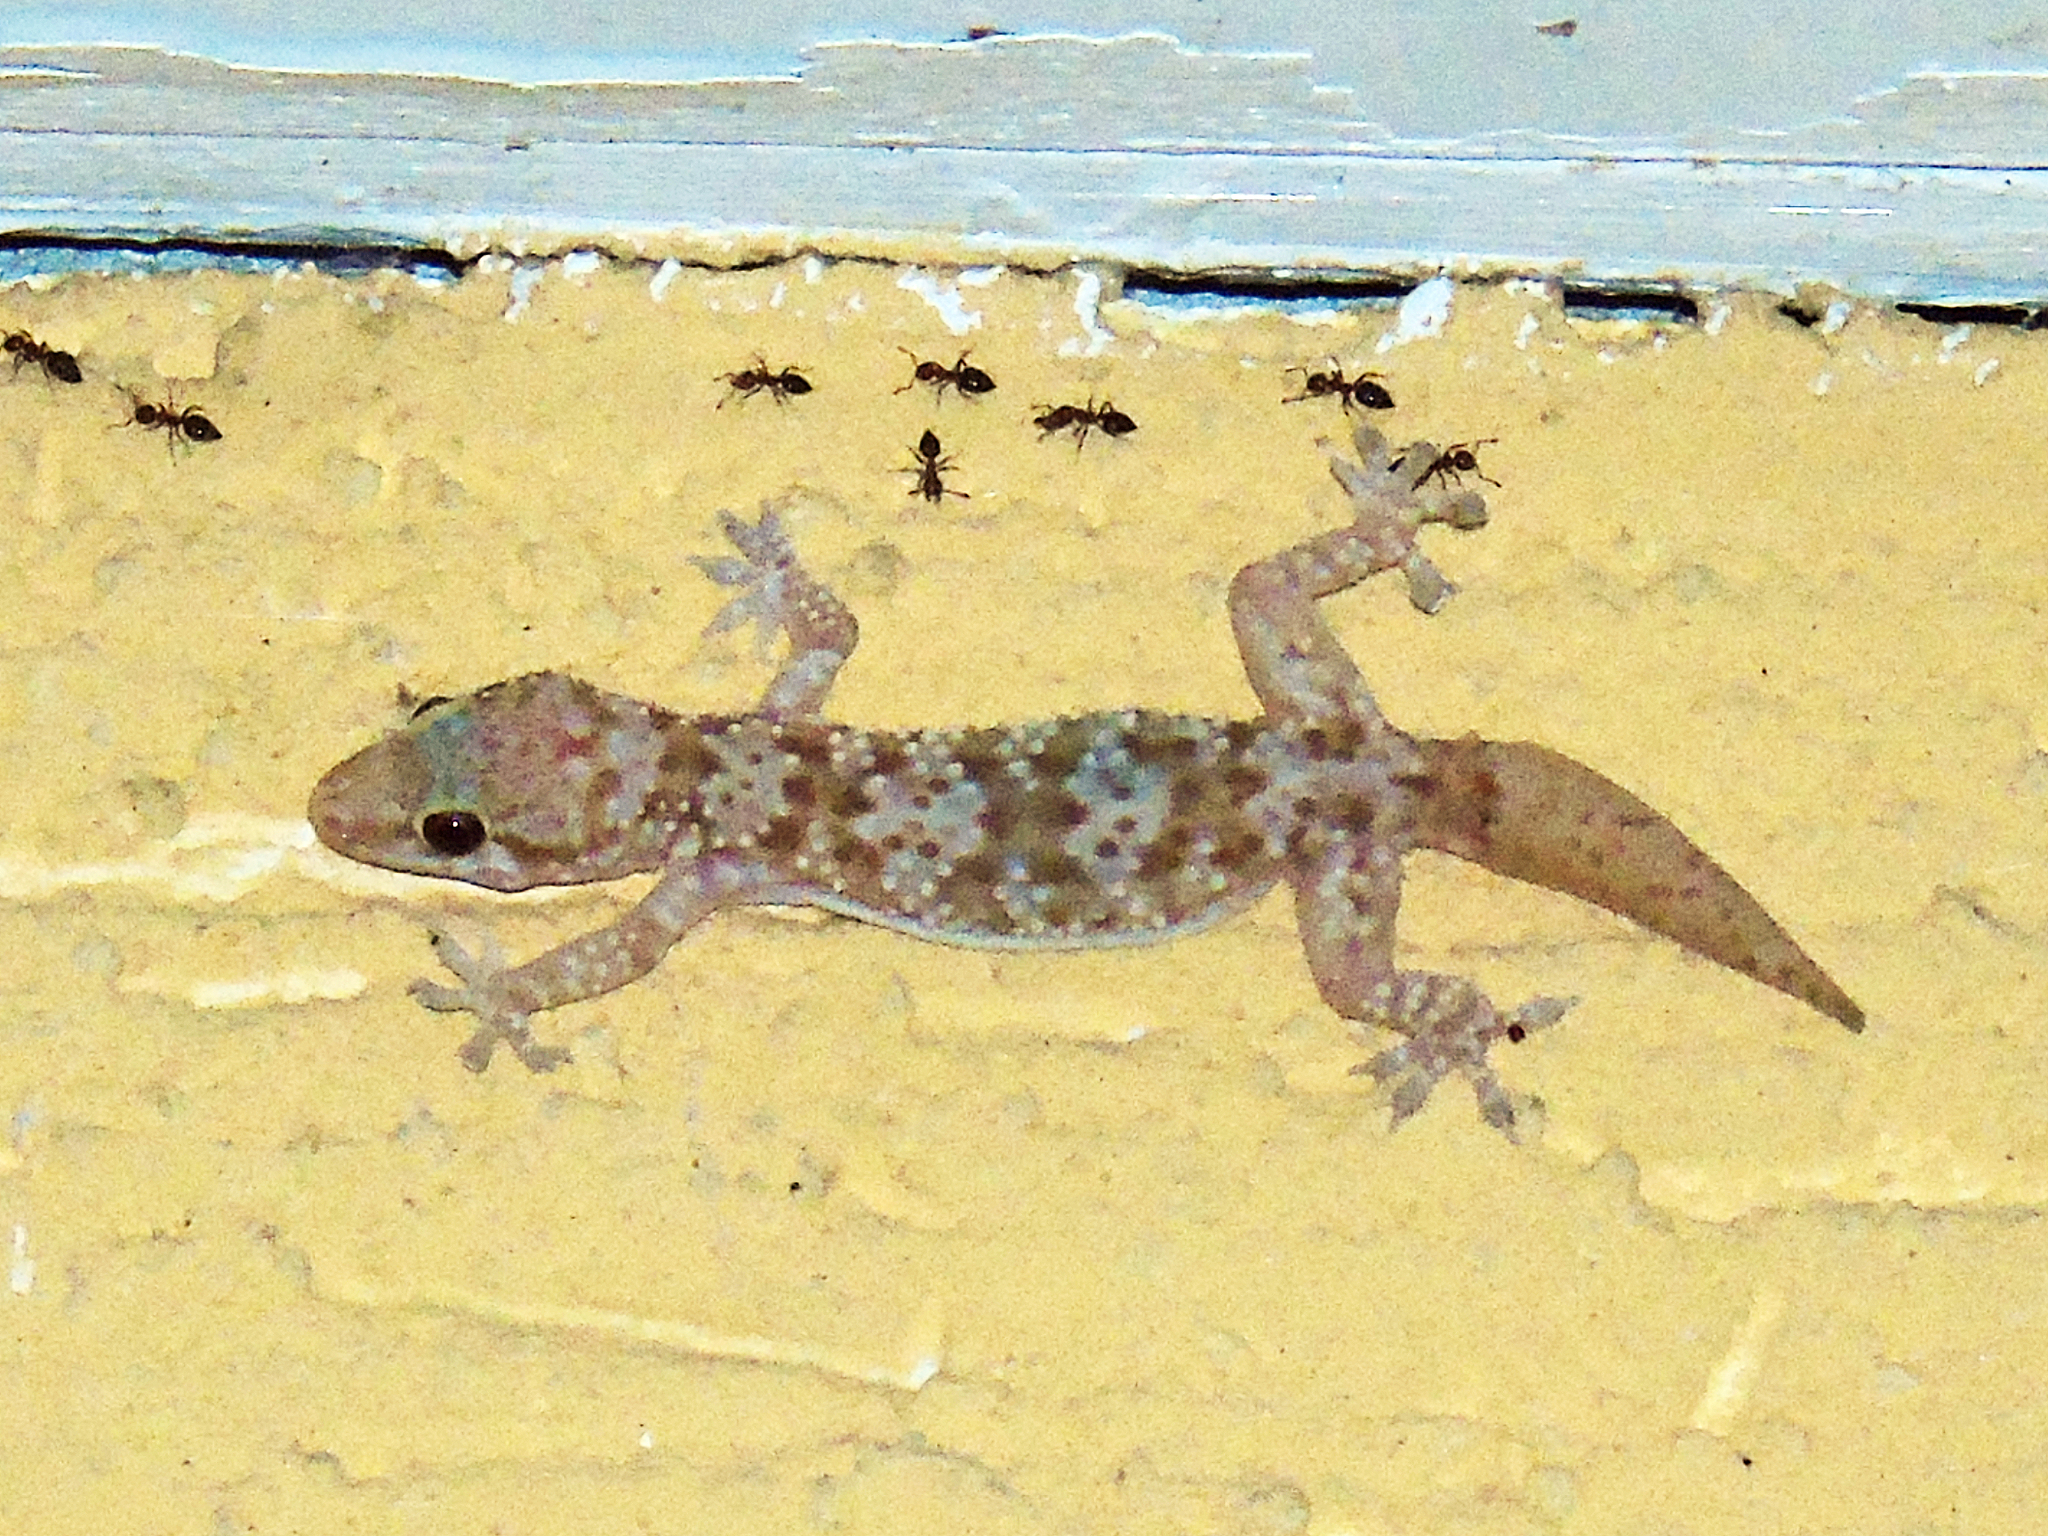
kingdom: Animalia
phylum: Chordata
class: Squamata
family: Gekkonidae
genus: Hemidactylus
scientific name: Hemidactylus turcicus
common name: Turkish gecko
